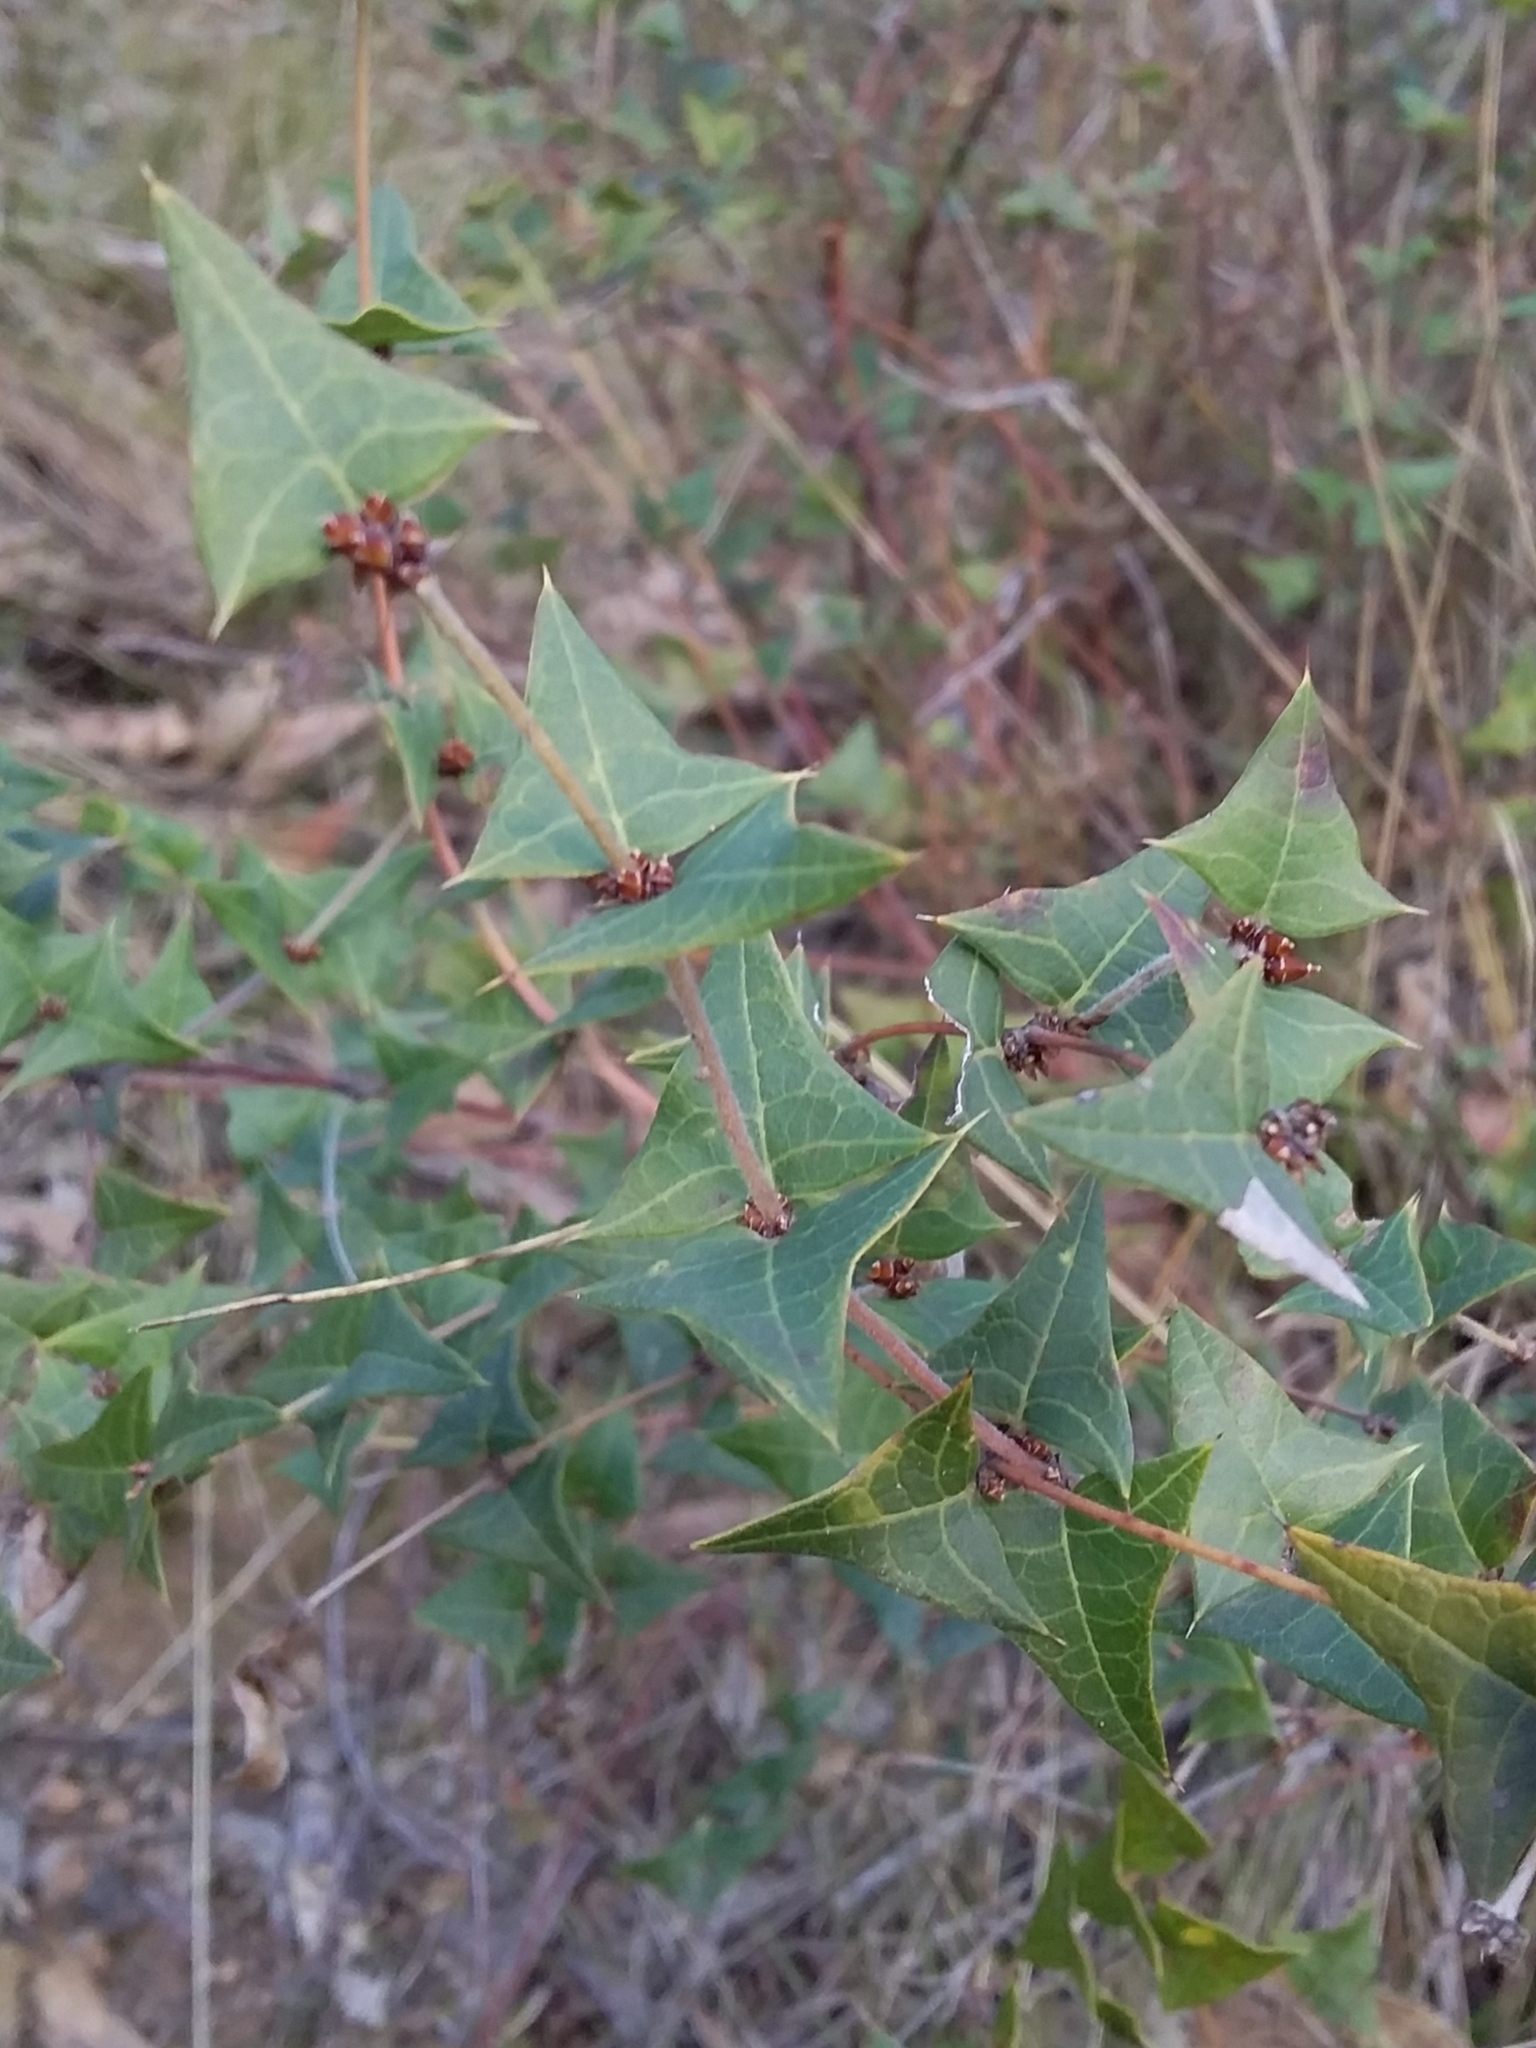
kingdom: Plantae
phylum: Tracheophyta
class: Magnoliopsida
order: Fabales
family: Fabaceae
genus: Platylobium
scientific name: Platylobium obtusangulum
